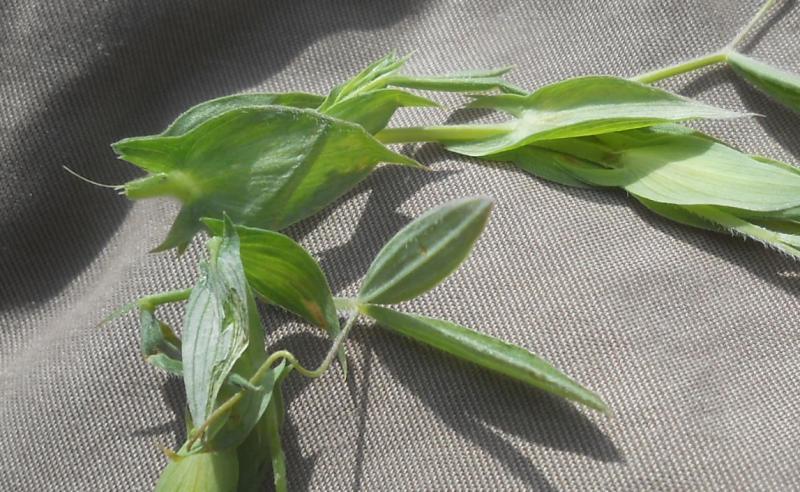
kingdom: Plantae
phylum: Tracheophyta
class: Magnoliopsida
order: Fabales
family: Fabaceae
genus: Lathyrus
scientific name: Lathyrus pratensis
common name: Meadow vetchling
